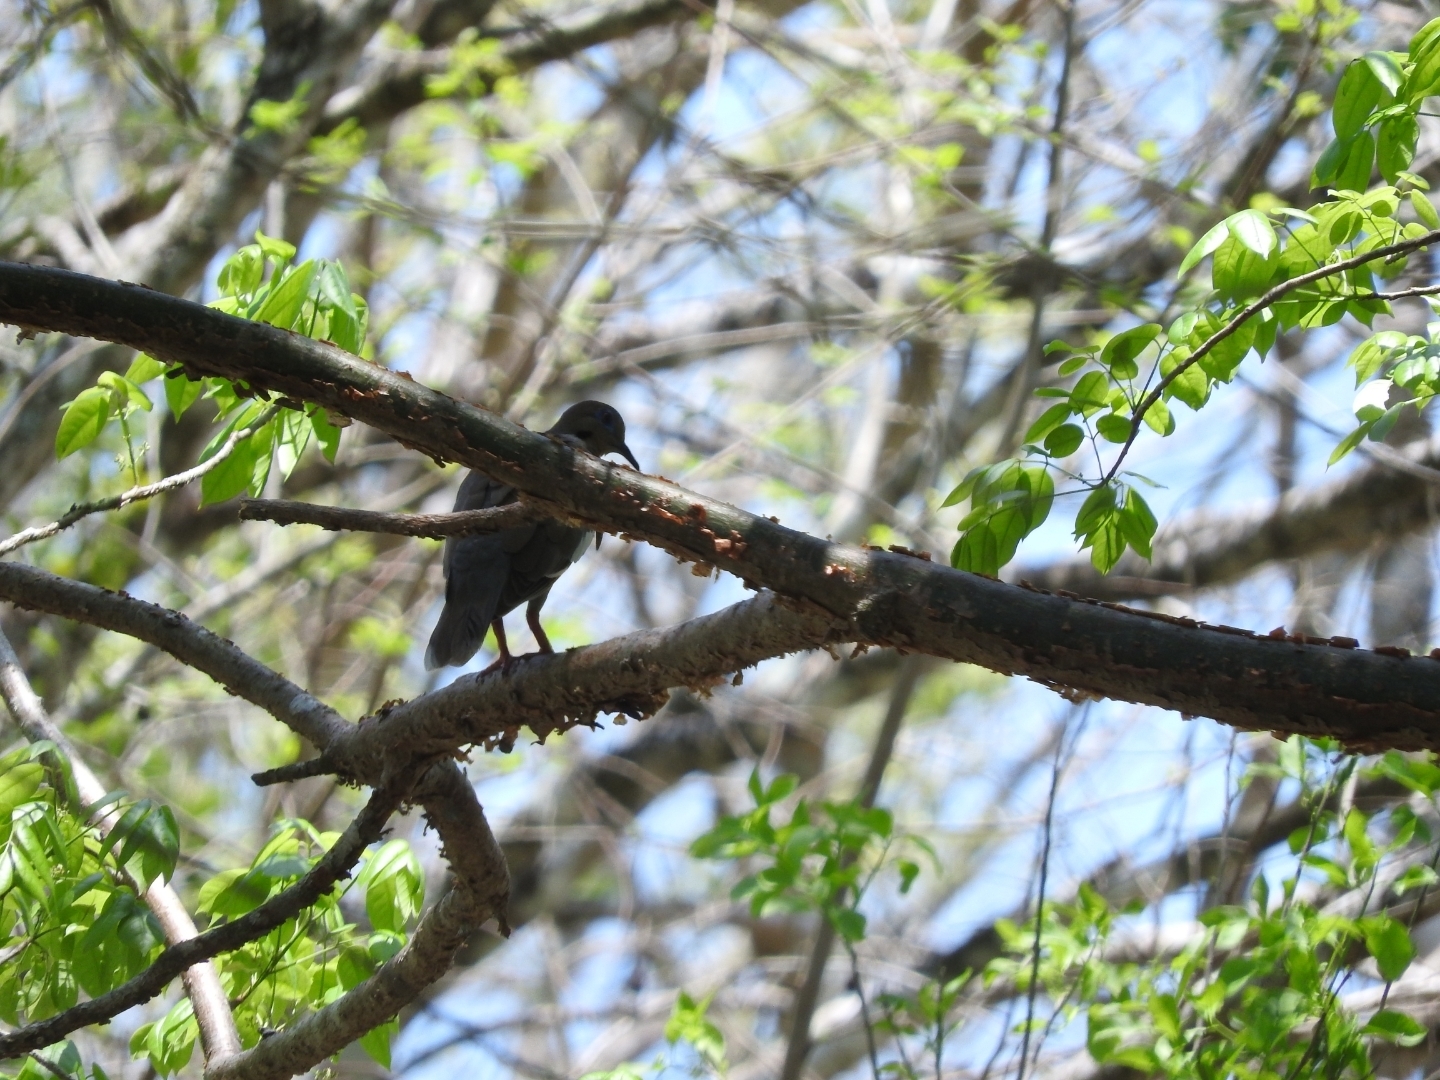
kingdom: Animalia
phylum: Chordata
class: Aves
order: Columbiformes
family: Columbidae
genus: Zenaida
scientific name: Zenaida asiatica
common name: White-winged dove
